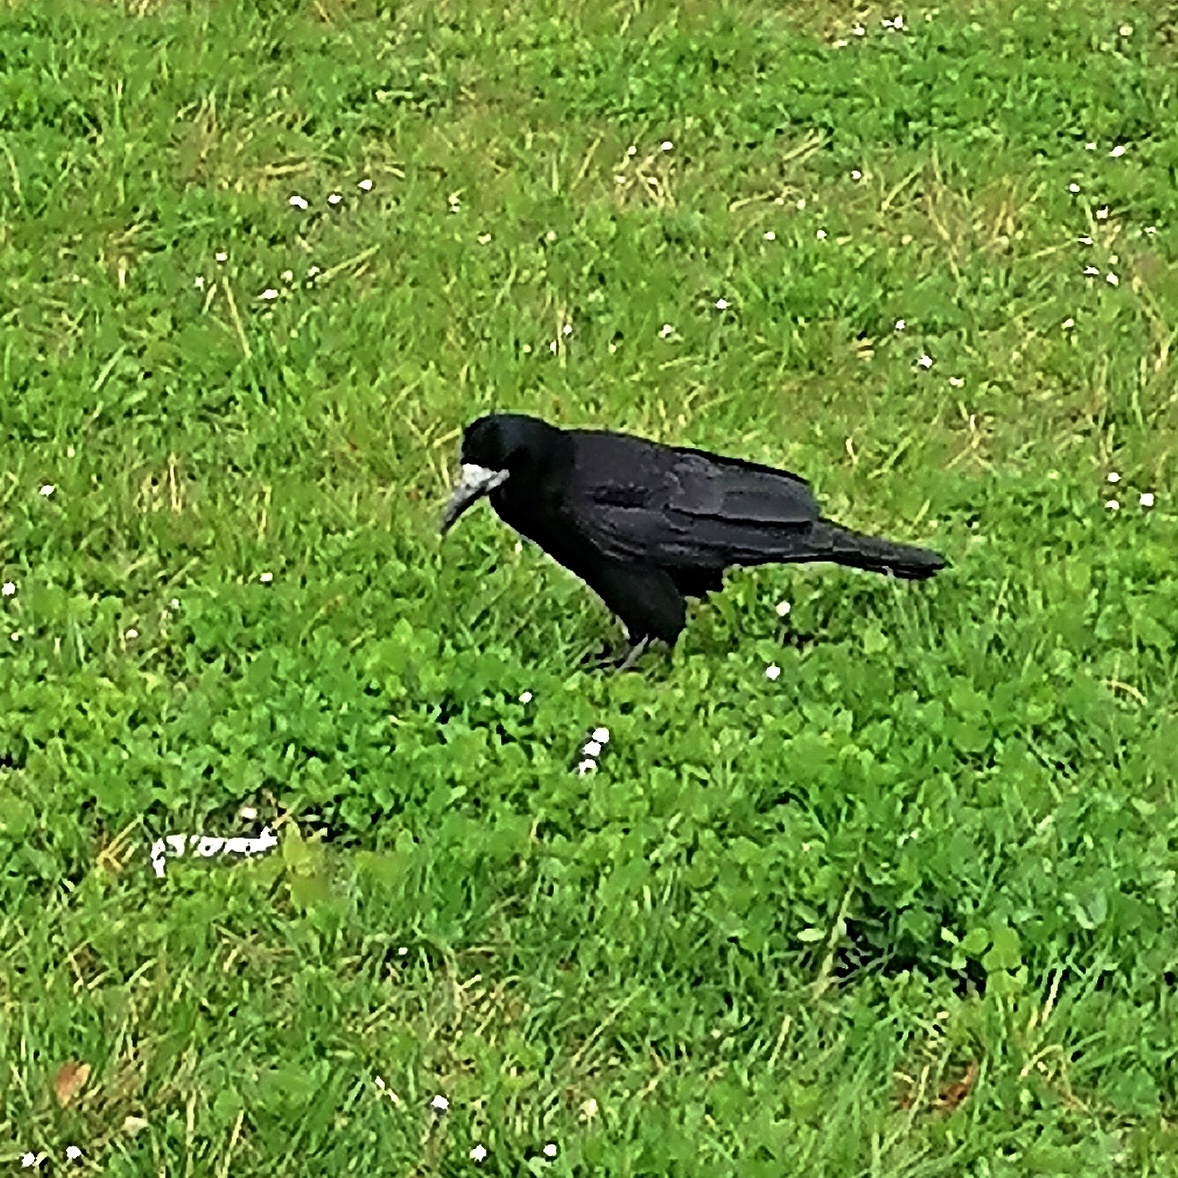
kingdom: Animalia
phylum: Chordata
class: Aves
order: Passeriformes
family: Corvidae
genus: Corvus
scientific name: Corvus frugilegus
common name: Rook
